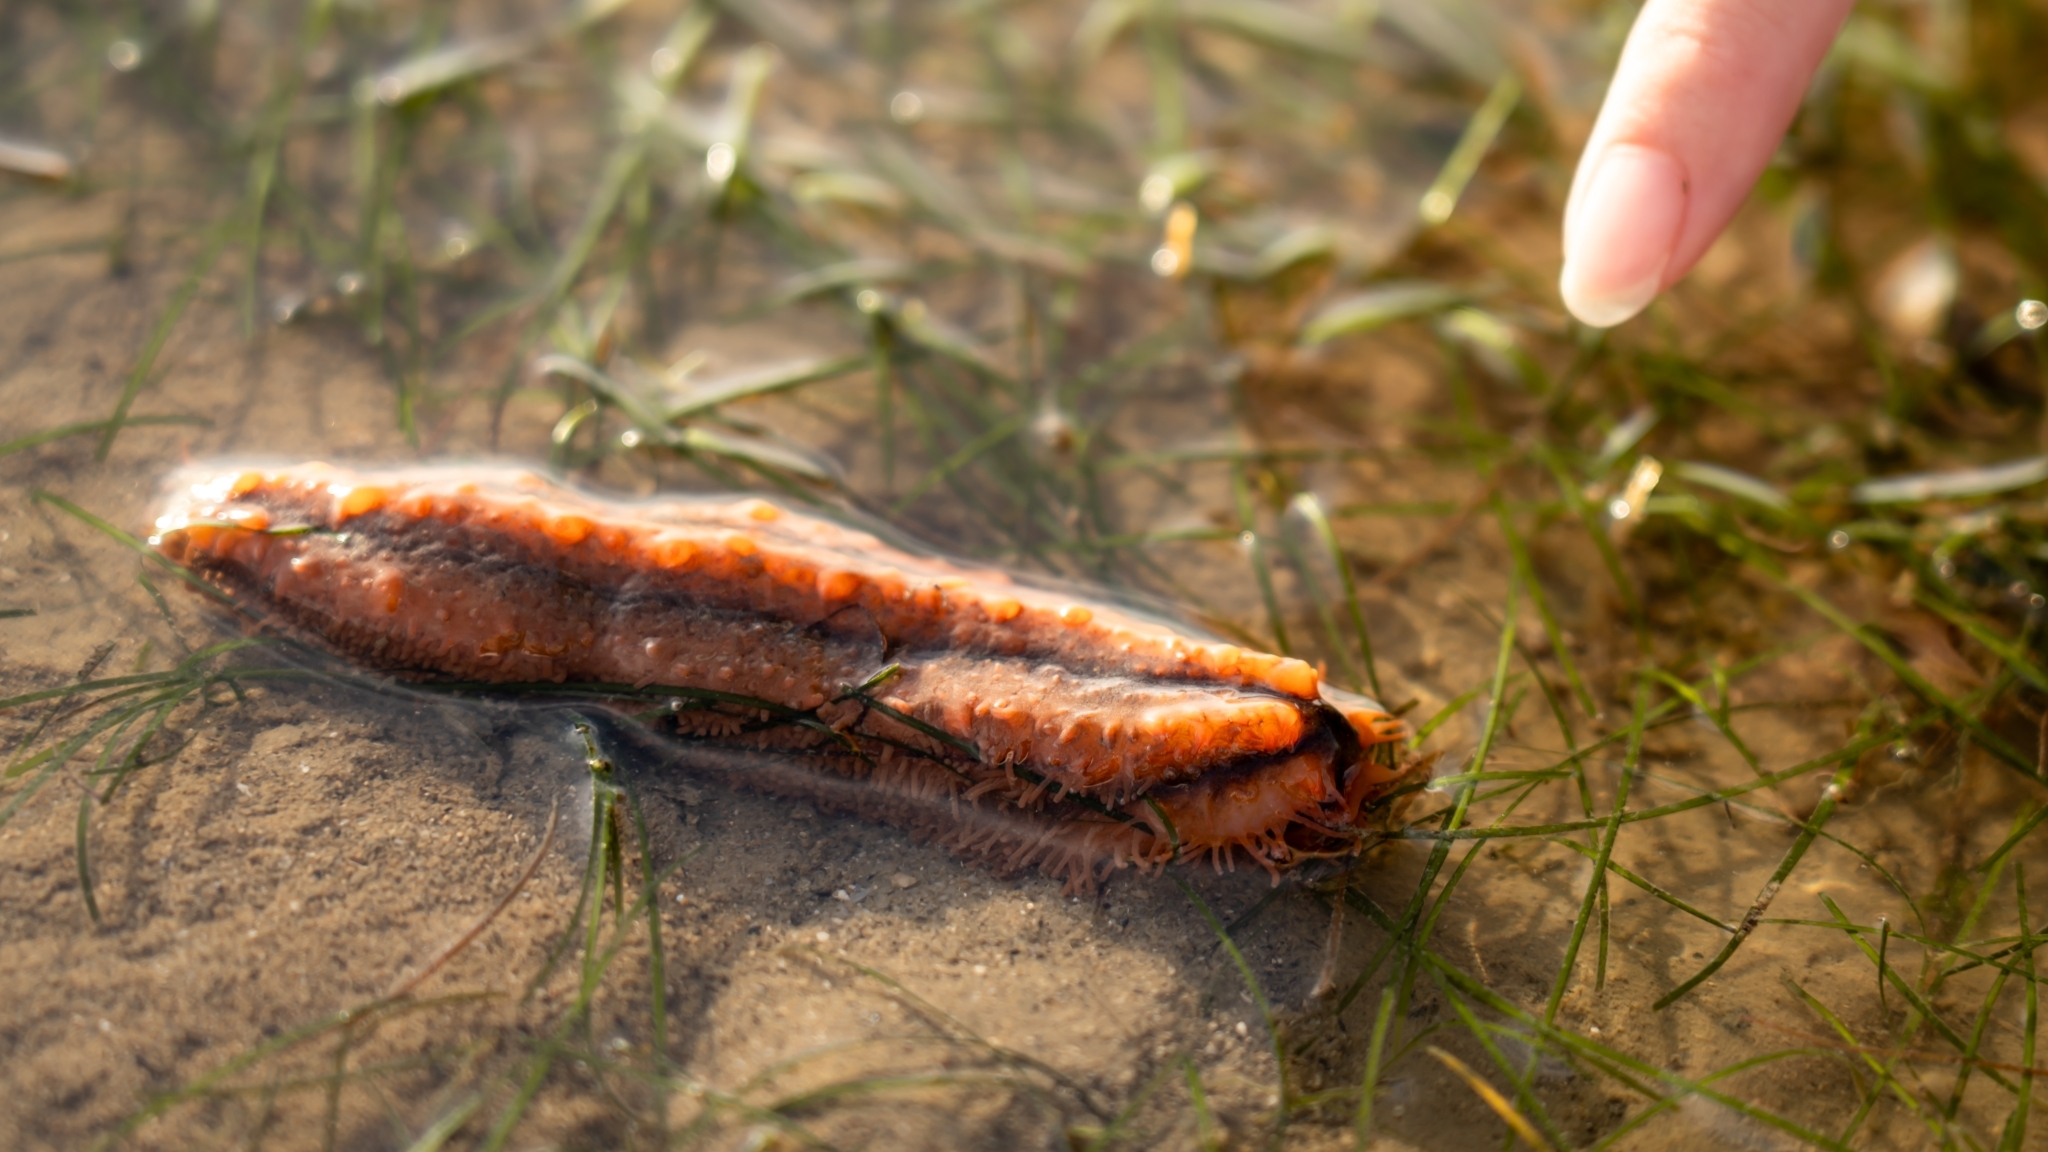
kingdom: Animalia
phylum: Echinodermata
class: Holothuroidea
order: Dendrochirotida
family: Cucumariidae
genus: Mensamaria
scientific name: Mensamaria intercedens
